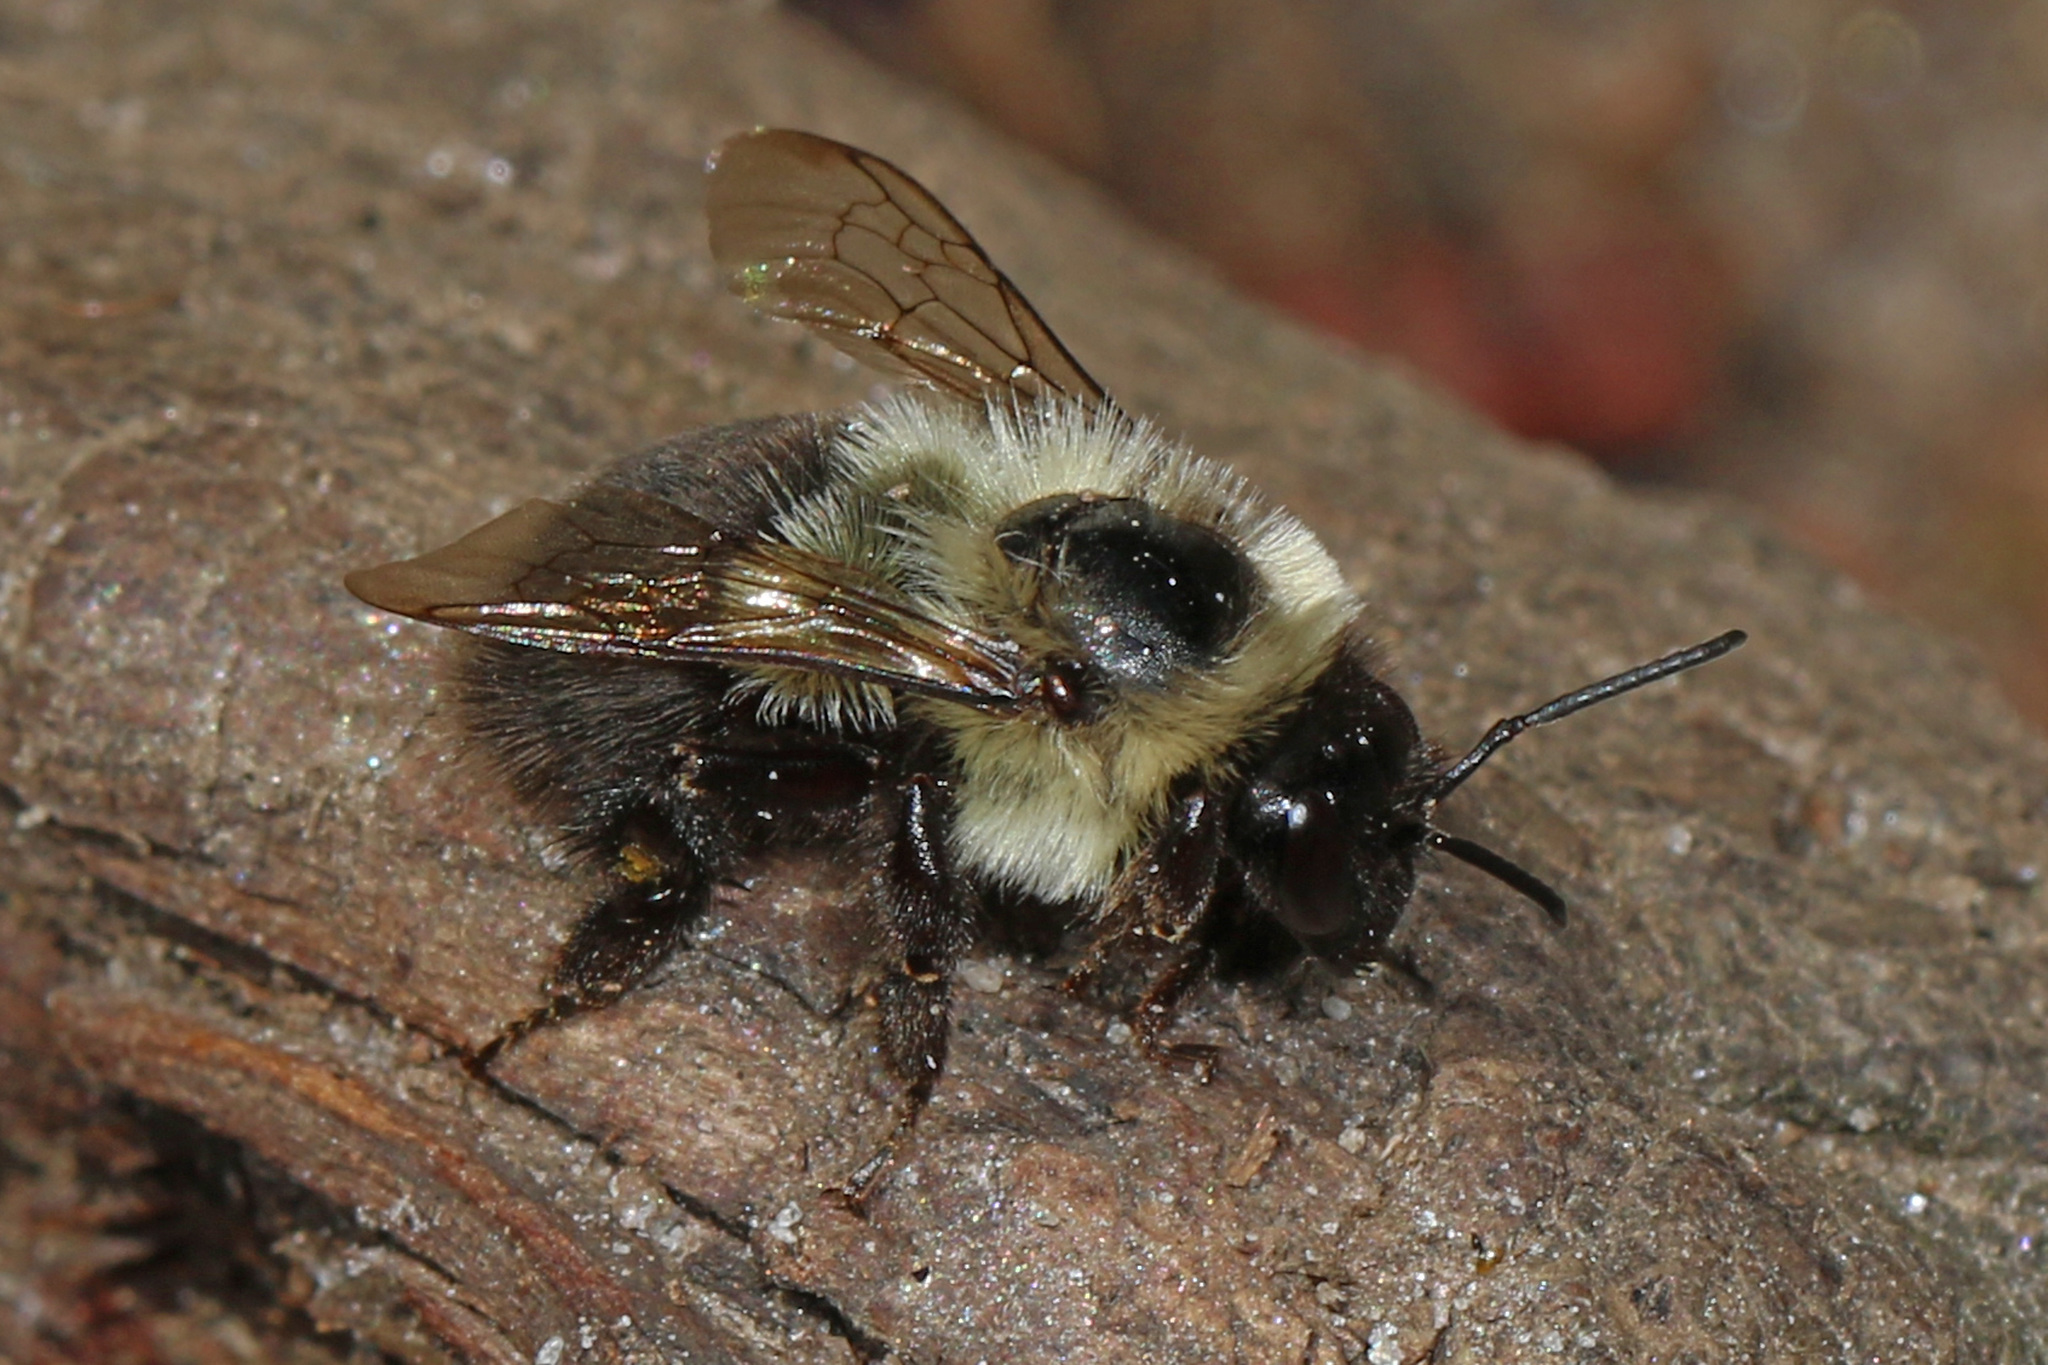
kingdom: Animalia
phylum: Arthropoda
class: Insecta
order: Hymenoptera
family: Apidae
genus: Bombus
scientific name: Bombus impatiens
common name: Common eastern bumble bee
